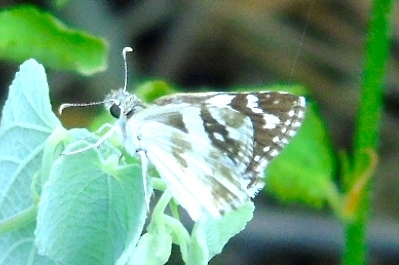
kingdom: Animalia
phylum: Arthropoda
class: Insecta
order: Lepidoptera
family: Hesperiidae
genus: Heliopyrgus
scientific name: Heliopyrgus domicella
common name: Erichson's white skipper
